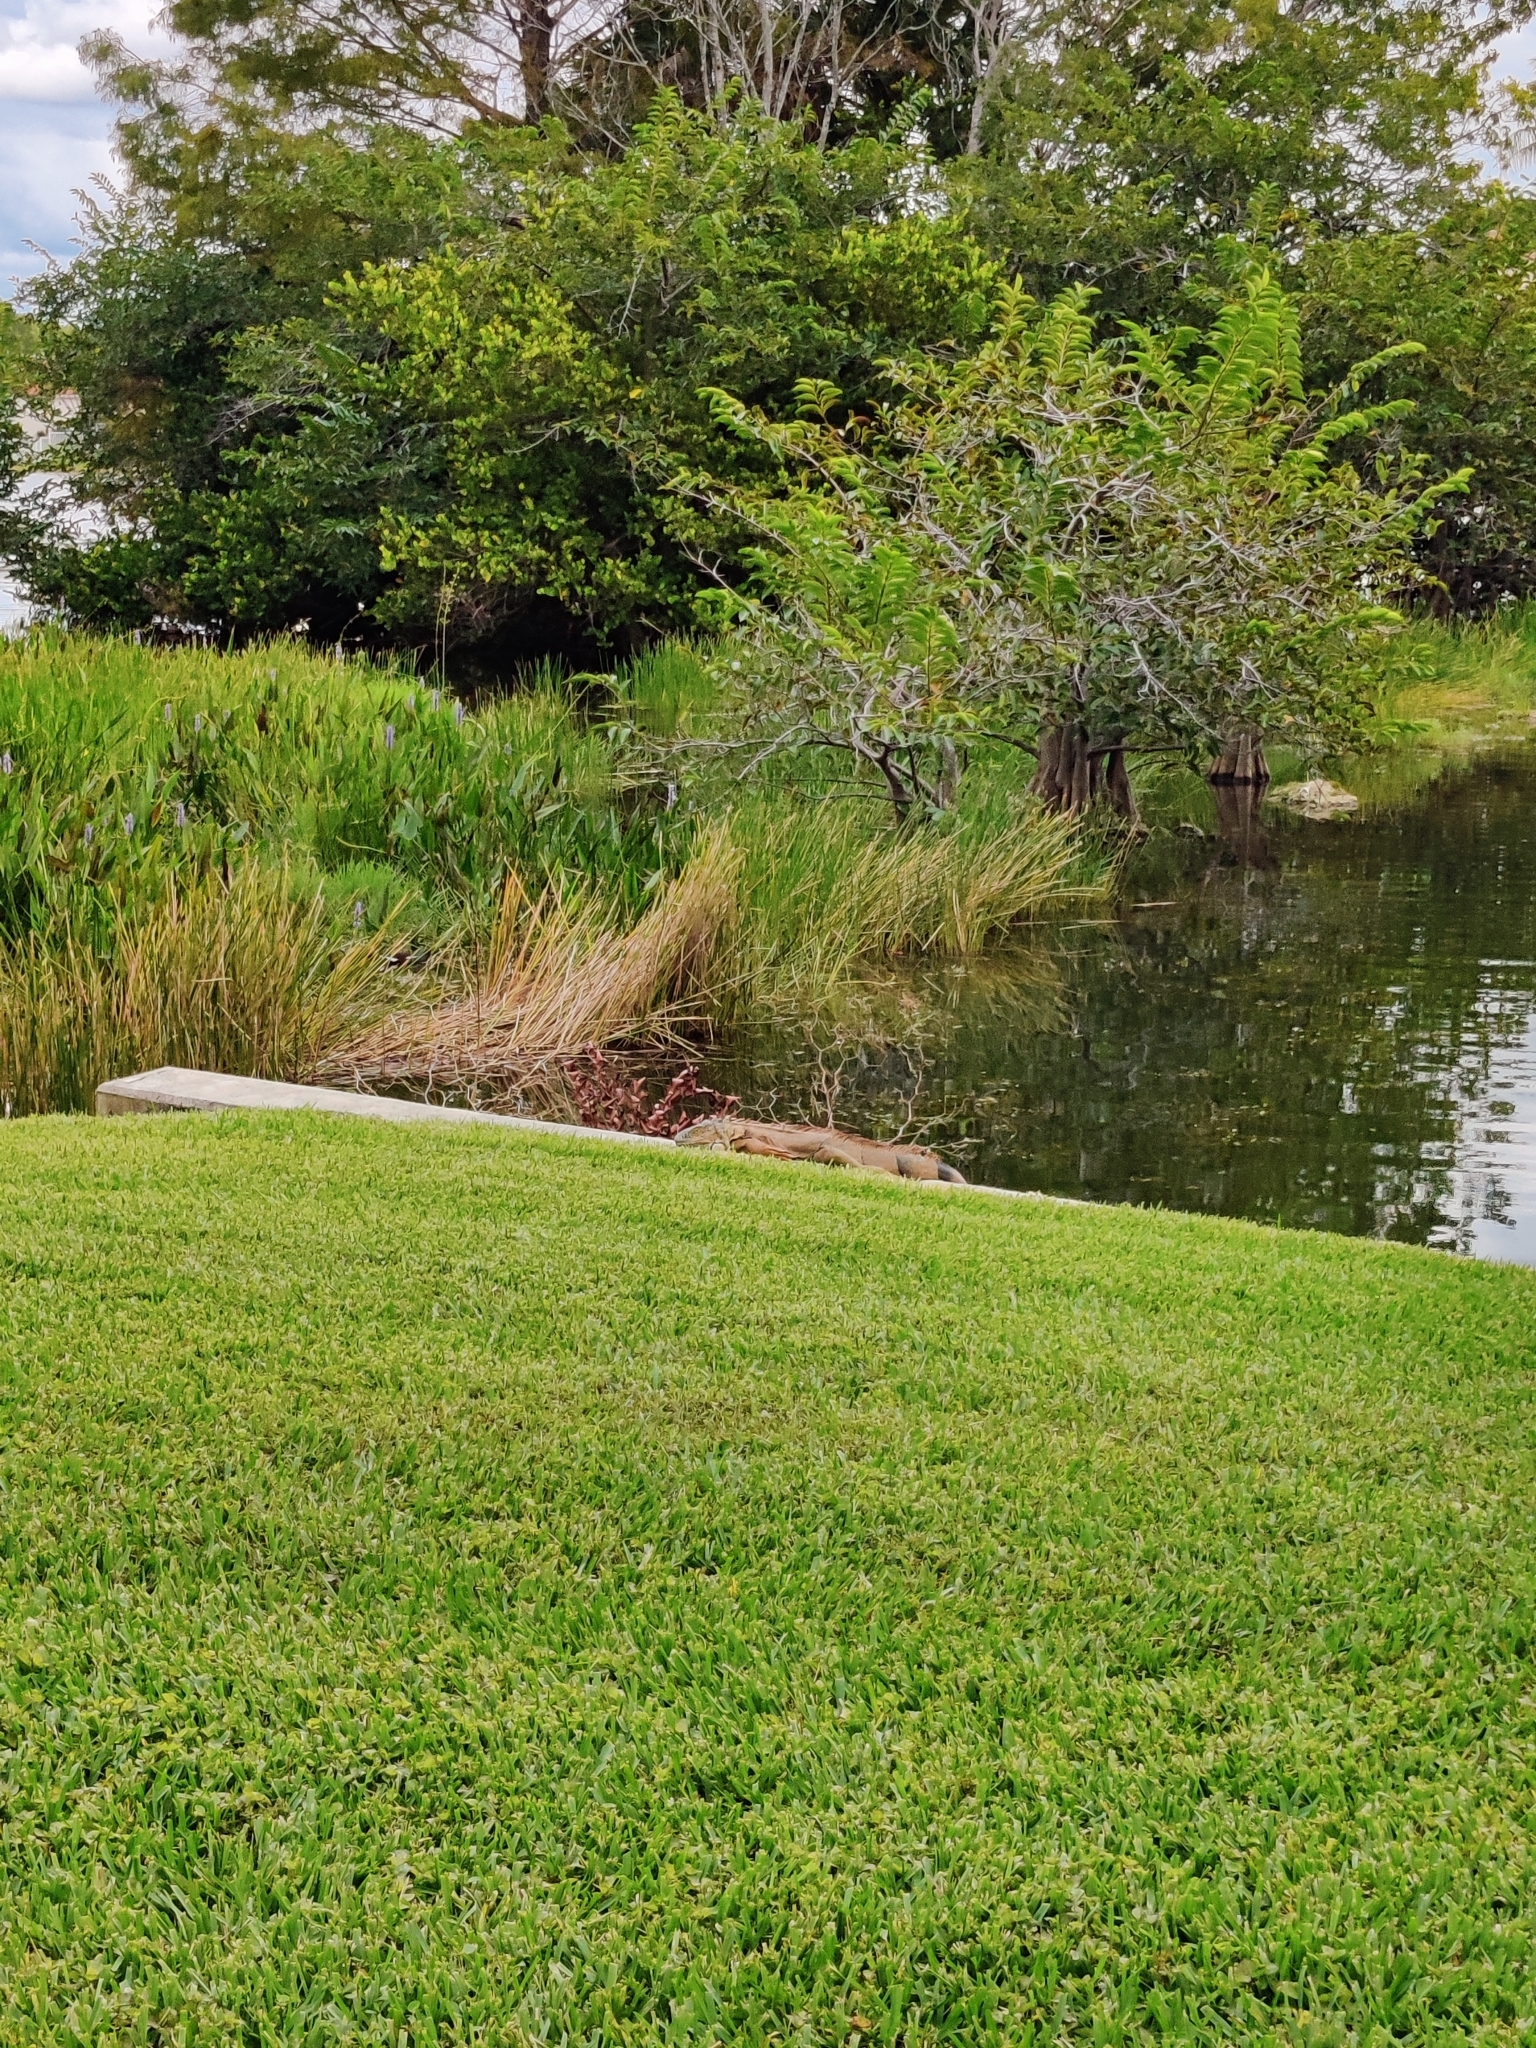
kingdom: Animalia
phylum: Chordata
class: Squamata
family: Iguanidae
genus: Iguana
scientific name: Iguana iguana
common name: Green iguana
